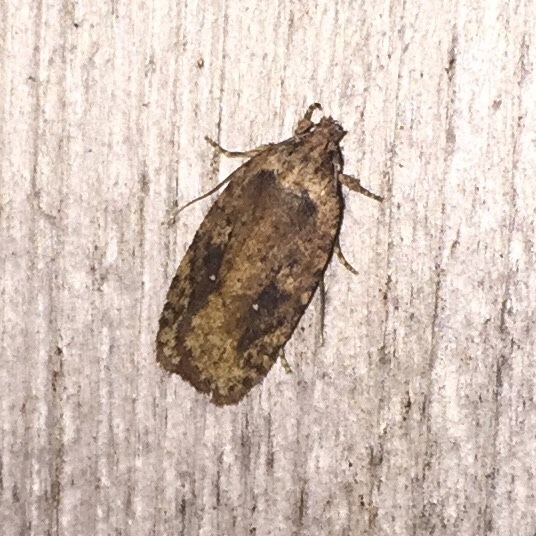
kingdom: Animalia
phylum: Arthropoda
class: Insecta
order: Lepidoptera
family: Depressariidae
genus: Agonopterix
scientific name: Agonopterix pulvipennella
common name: Goldenrod leafffolder
